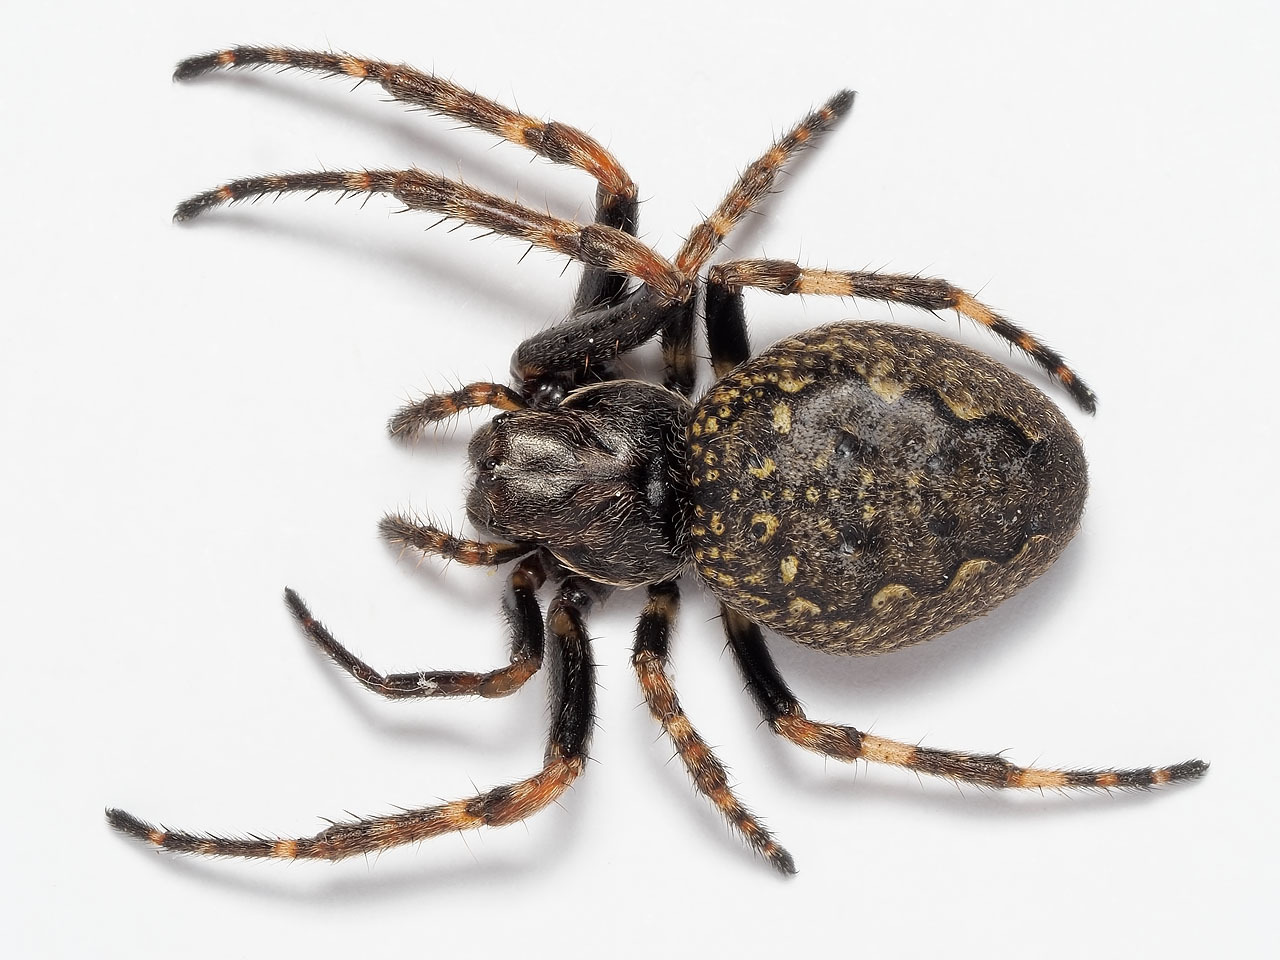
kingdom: Animalia
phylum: Arthropoda
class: Arachnida
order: Araneae
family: Araneidae
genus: Nuctenea
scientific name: Nuctenea umbratica
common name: Toad spider
